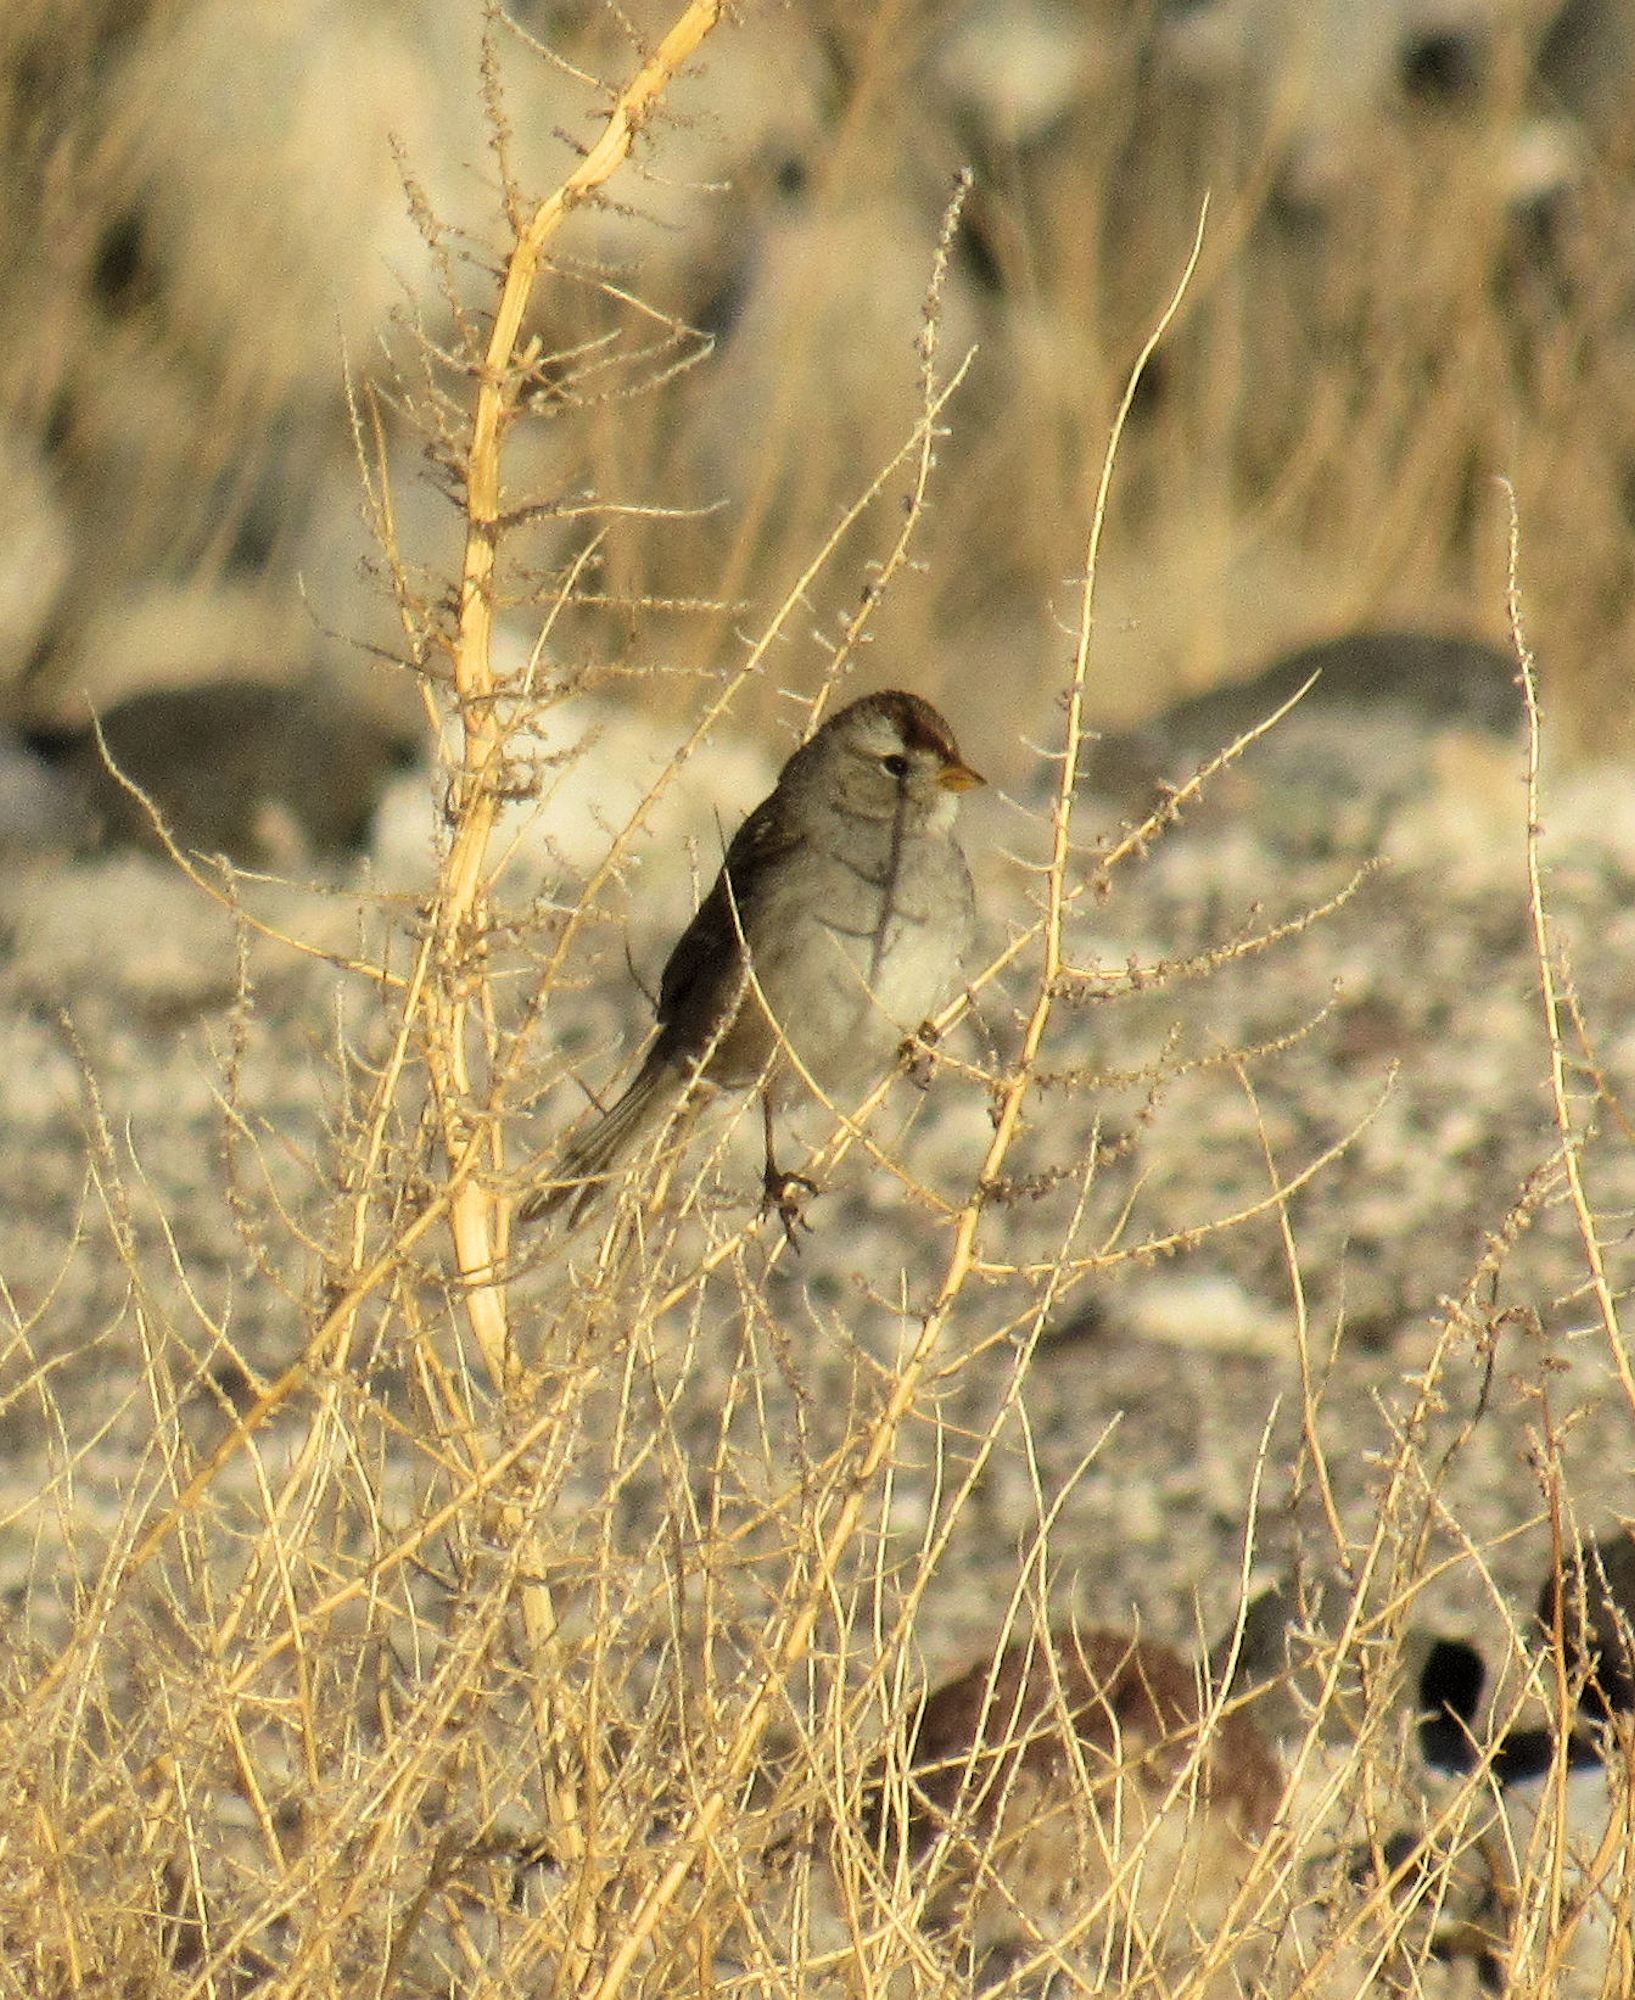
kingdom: Animalia
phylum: Chordata
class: Aves
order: Passeriformes
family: Passerellidae
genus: Zonotrichia
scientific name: Zonotrichia leucophrys
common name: White-crowned sparrow
